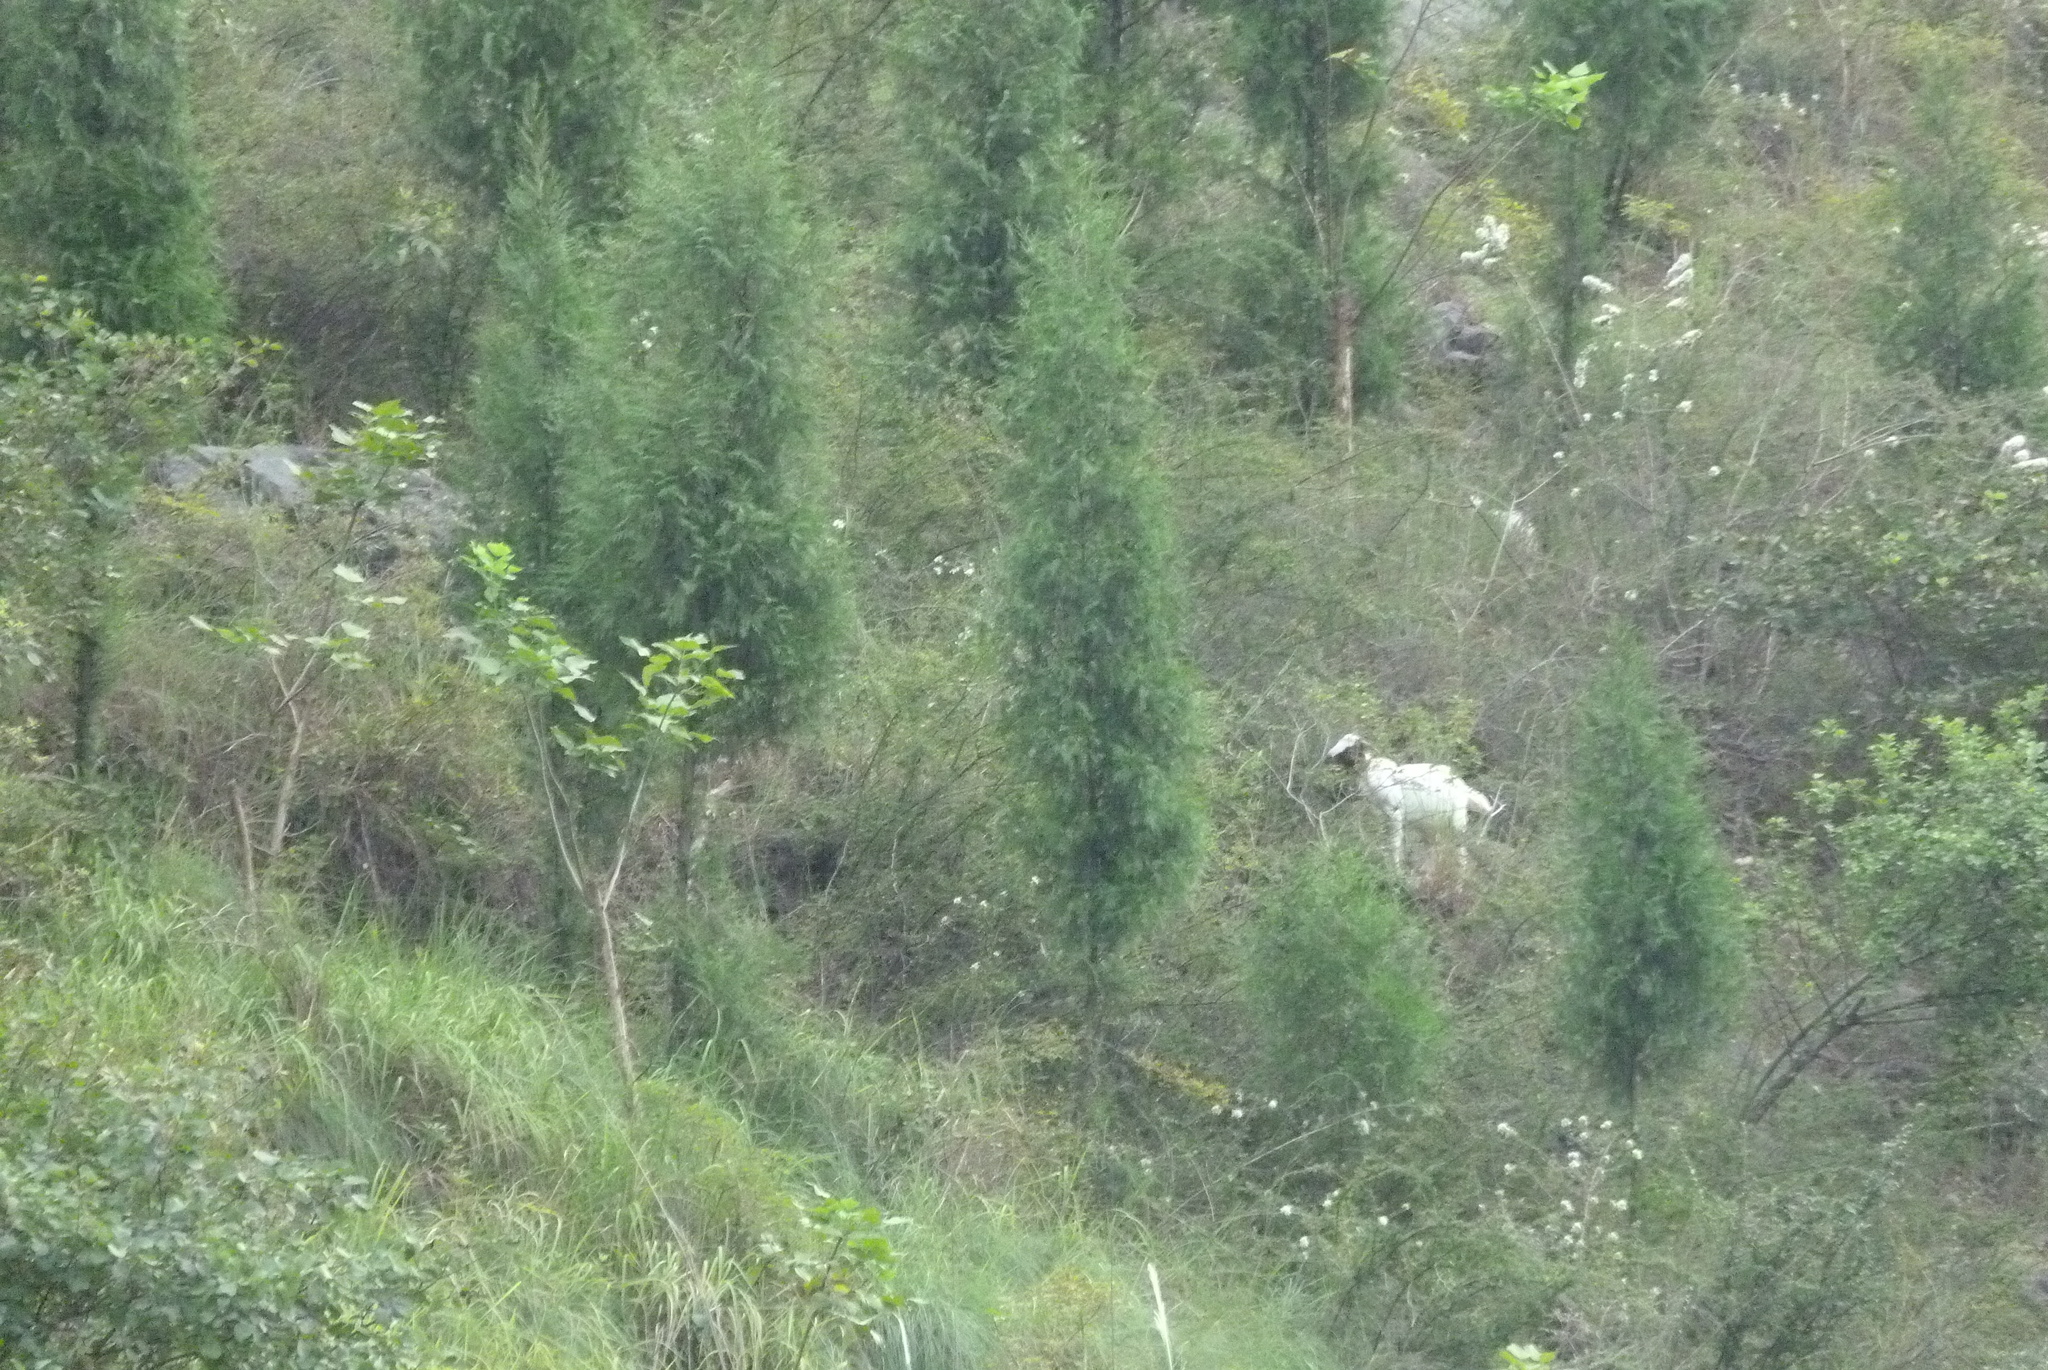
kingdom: Animalia
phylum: Chordata
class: Mammalia
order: Artiodactyla
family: Bovidae
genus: Capra
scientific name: Capra hircus
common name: Domestic goat
